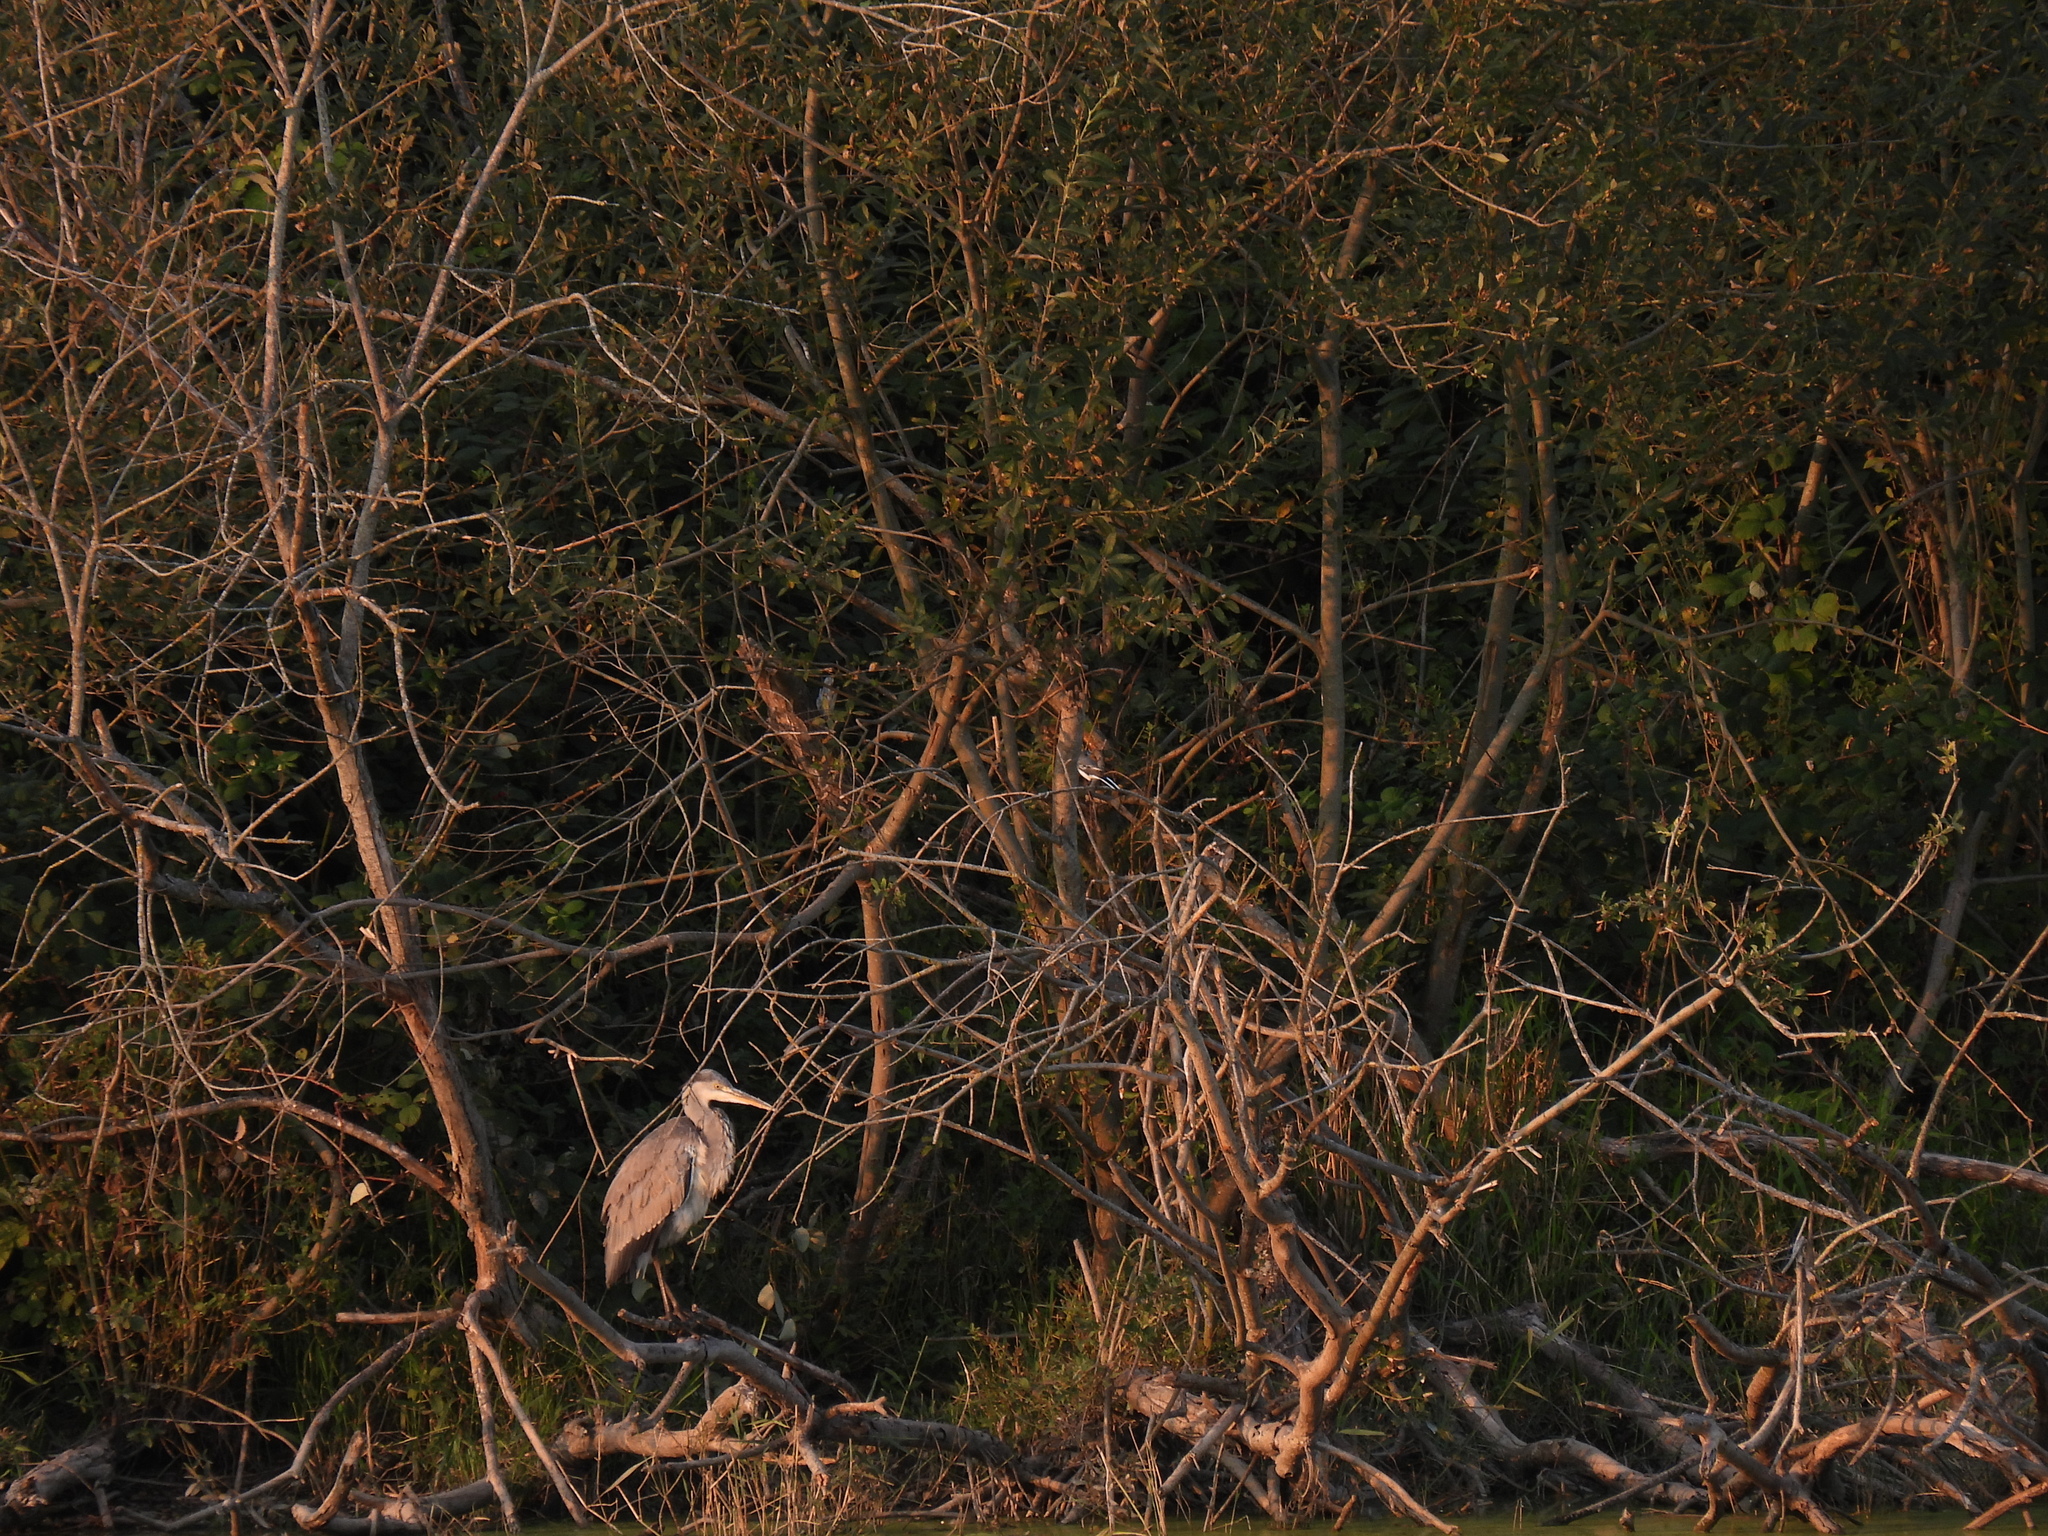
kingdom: Animalia
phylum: Chordata
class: Aves
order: Pelecaniformes
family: Ardeidae
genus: Ardea
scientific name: Ardea cinerea
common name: Grey heron
